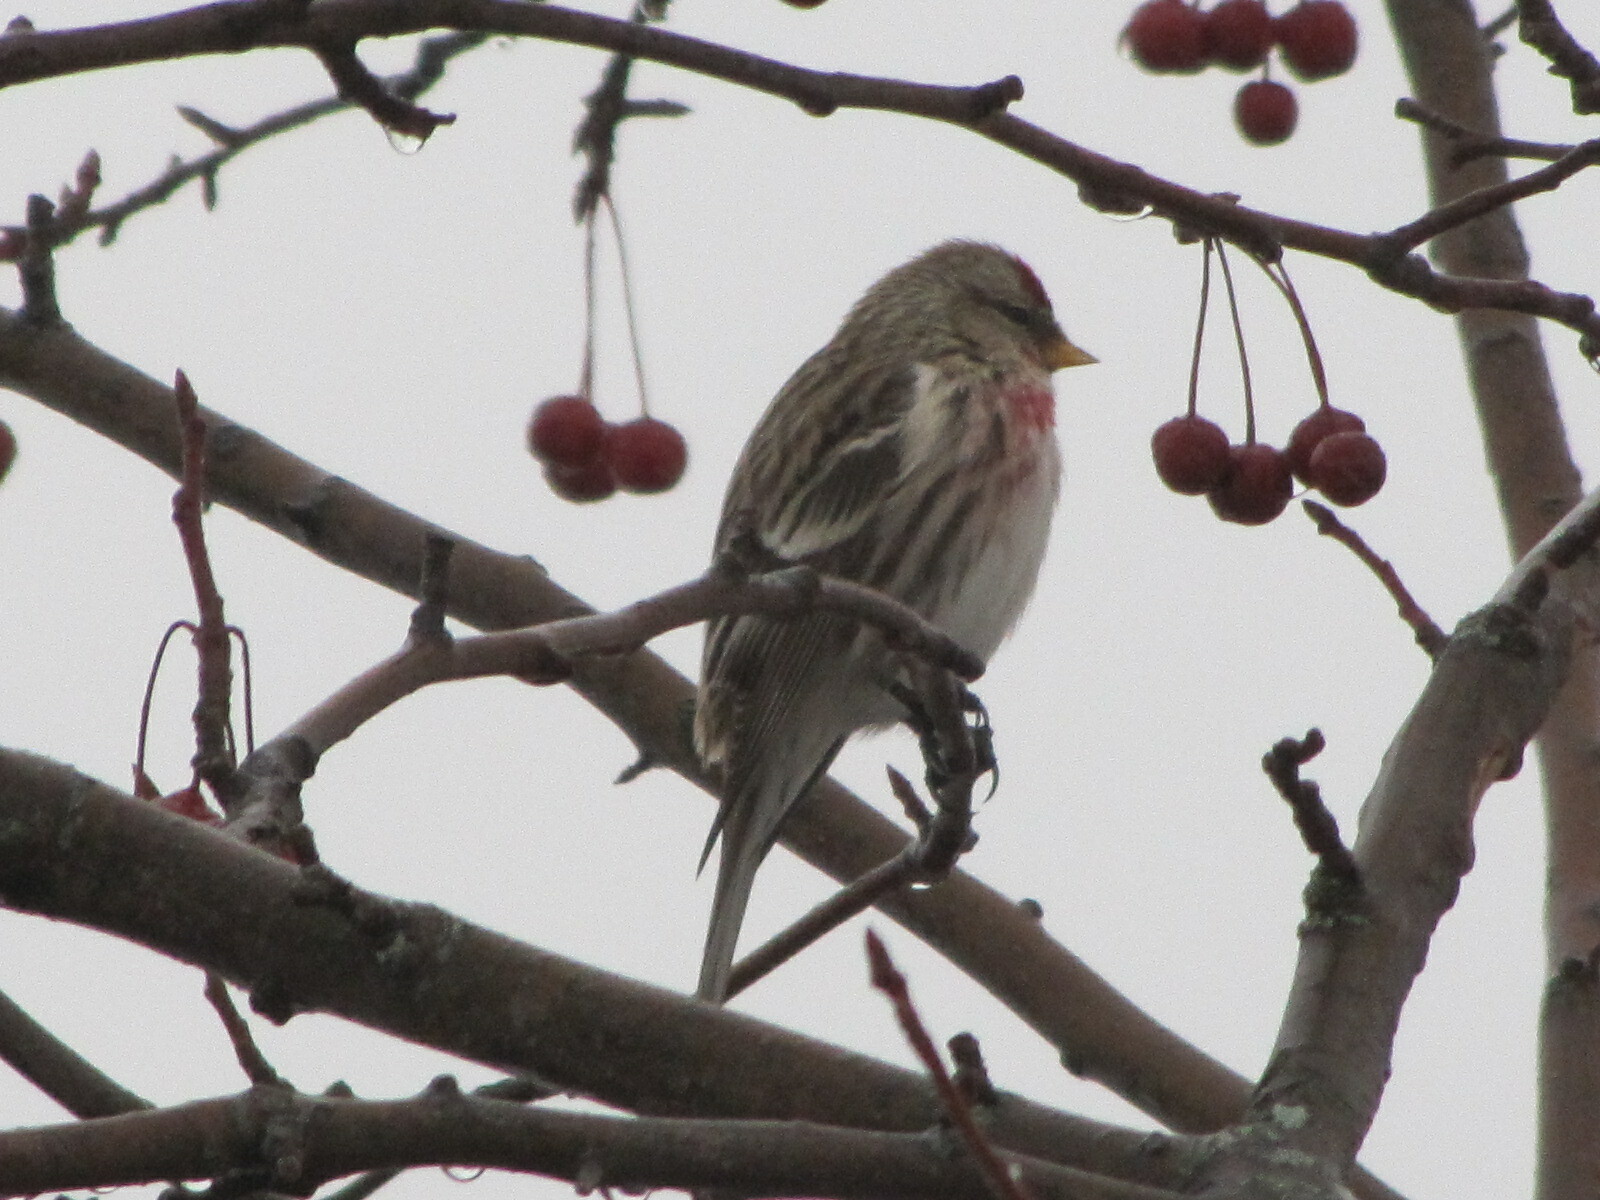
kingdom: Animalia
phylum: Chordata
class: Aves
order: Passeriformes
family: Fringillidae
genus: Acanthis
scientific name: Acanthis flammea
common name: Common redpoll
